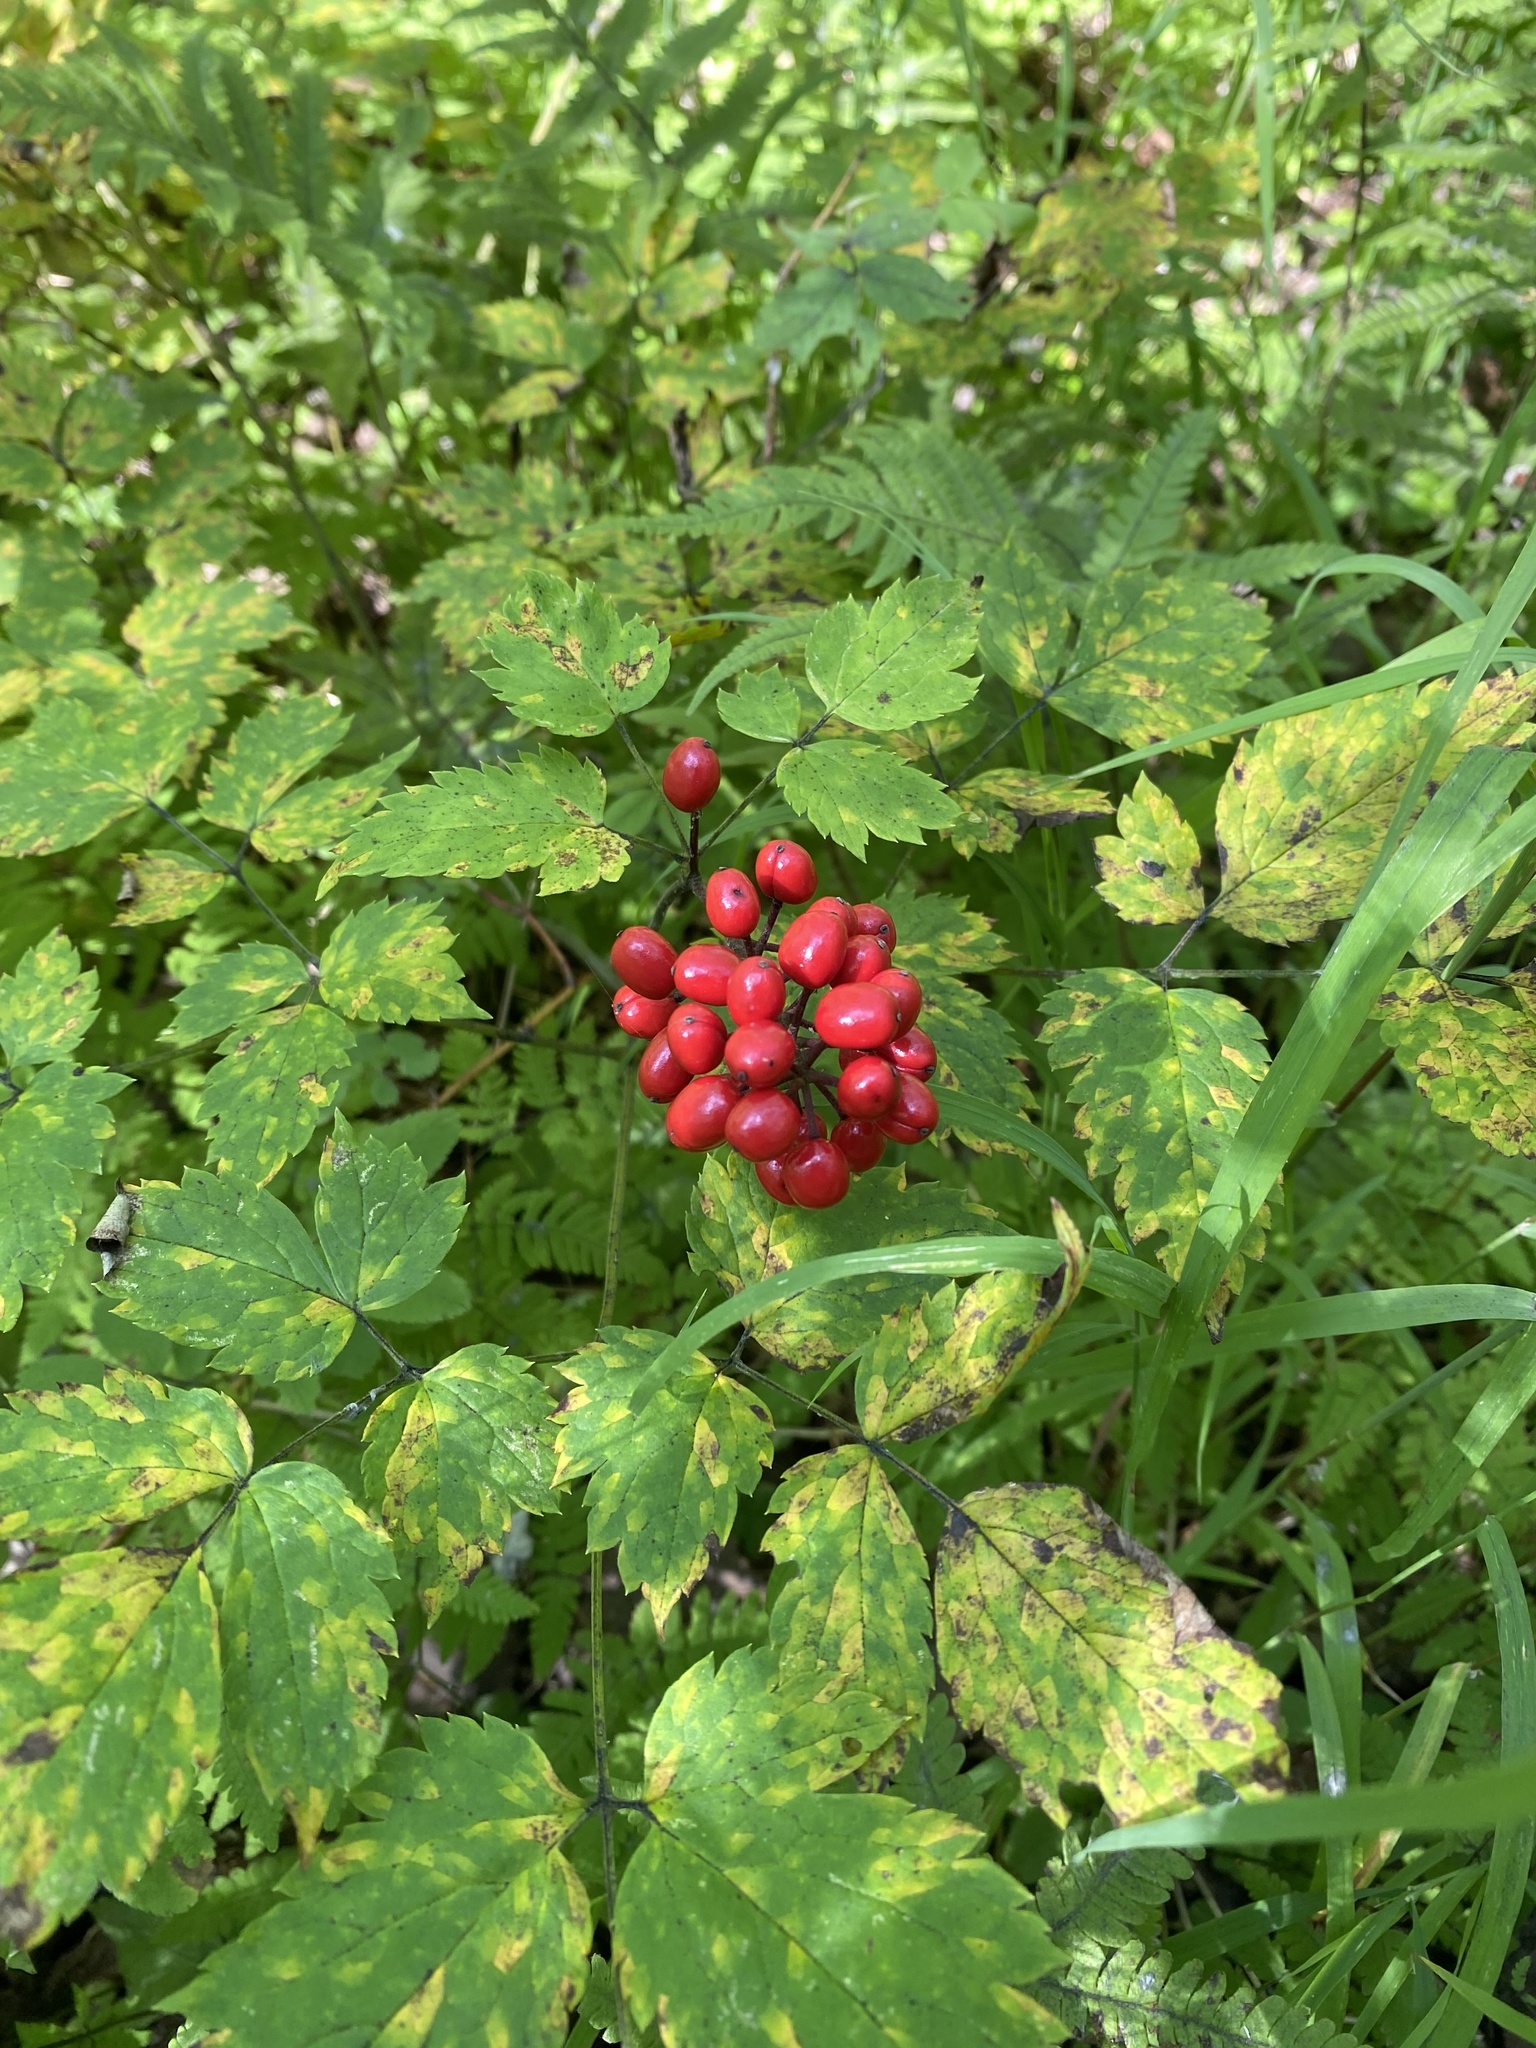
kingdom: Plantae
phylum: Tracheophyta
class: Magnoliopsida
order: Ranunculales
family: Ranunculaceae
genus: Actaea
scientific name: Actaea erythrocarpa
